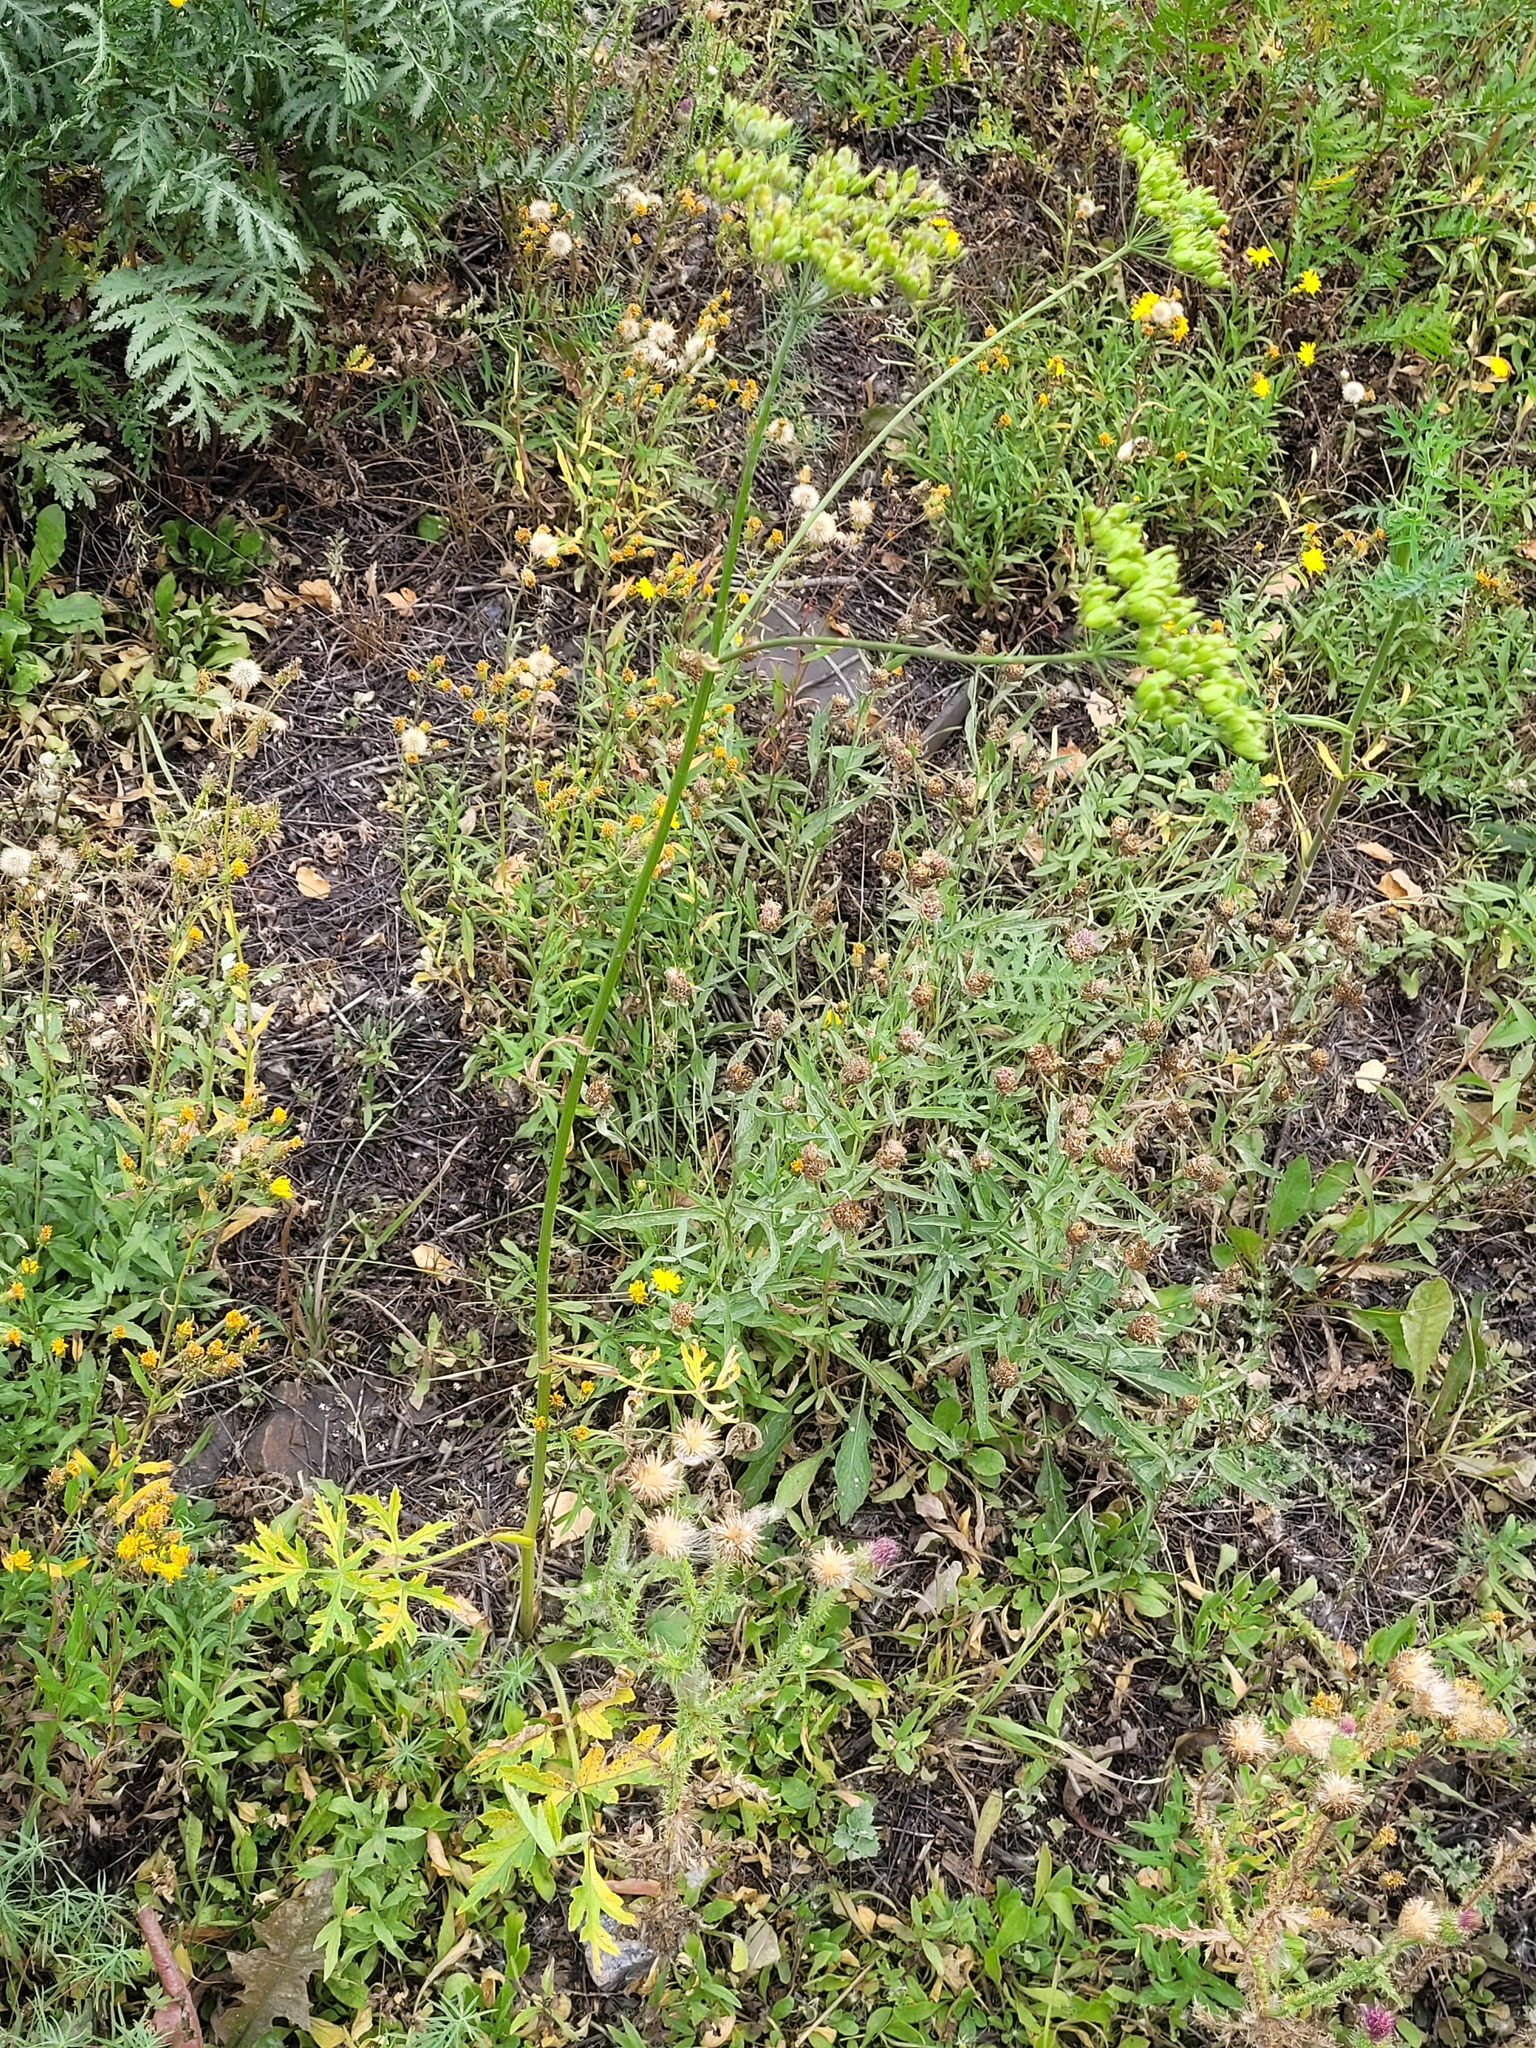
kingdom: Plantae
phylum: Tracheophyta
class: Magnoliopsida
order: Apiales
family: Apiaceae
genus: Heracleum
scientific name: Heracleum sphondylium
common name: Hogweed
